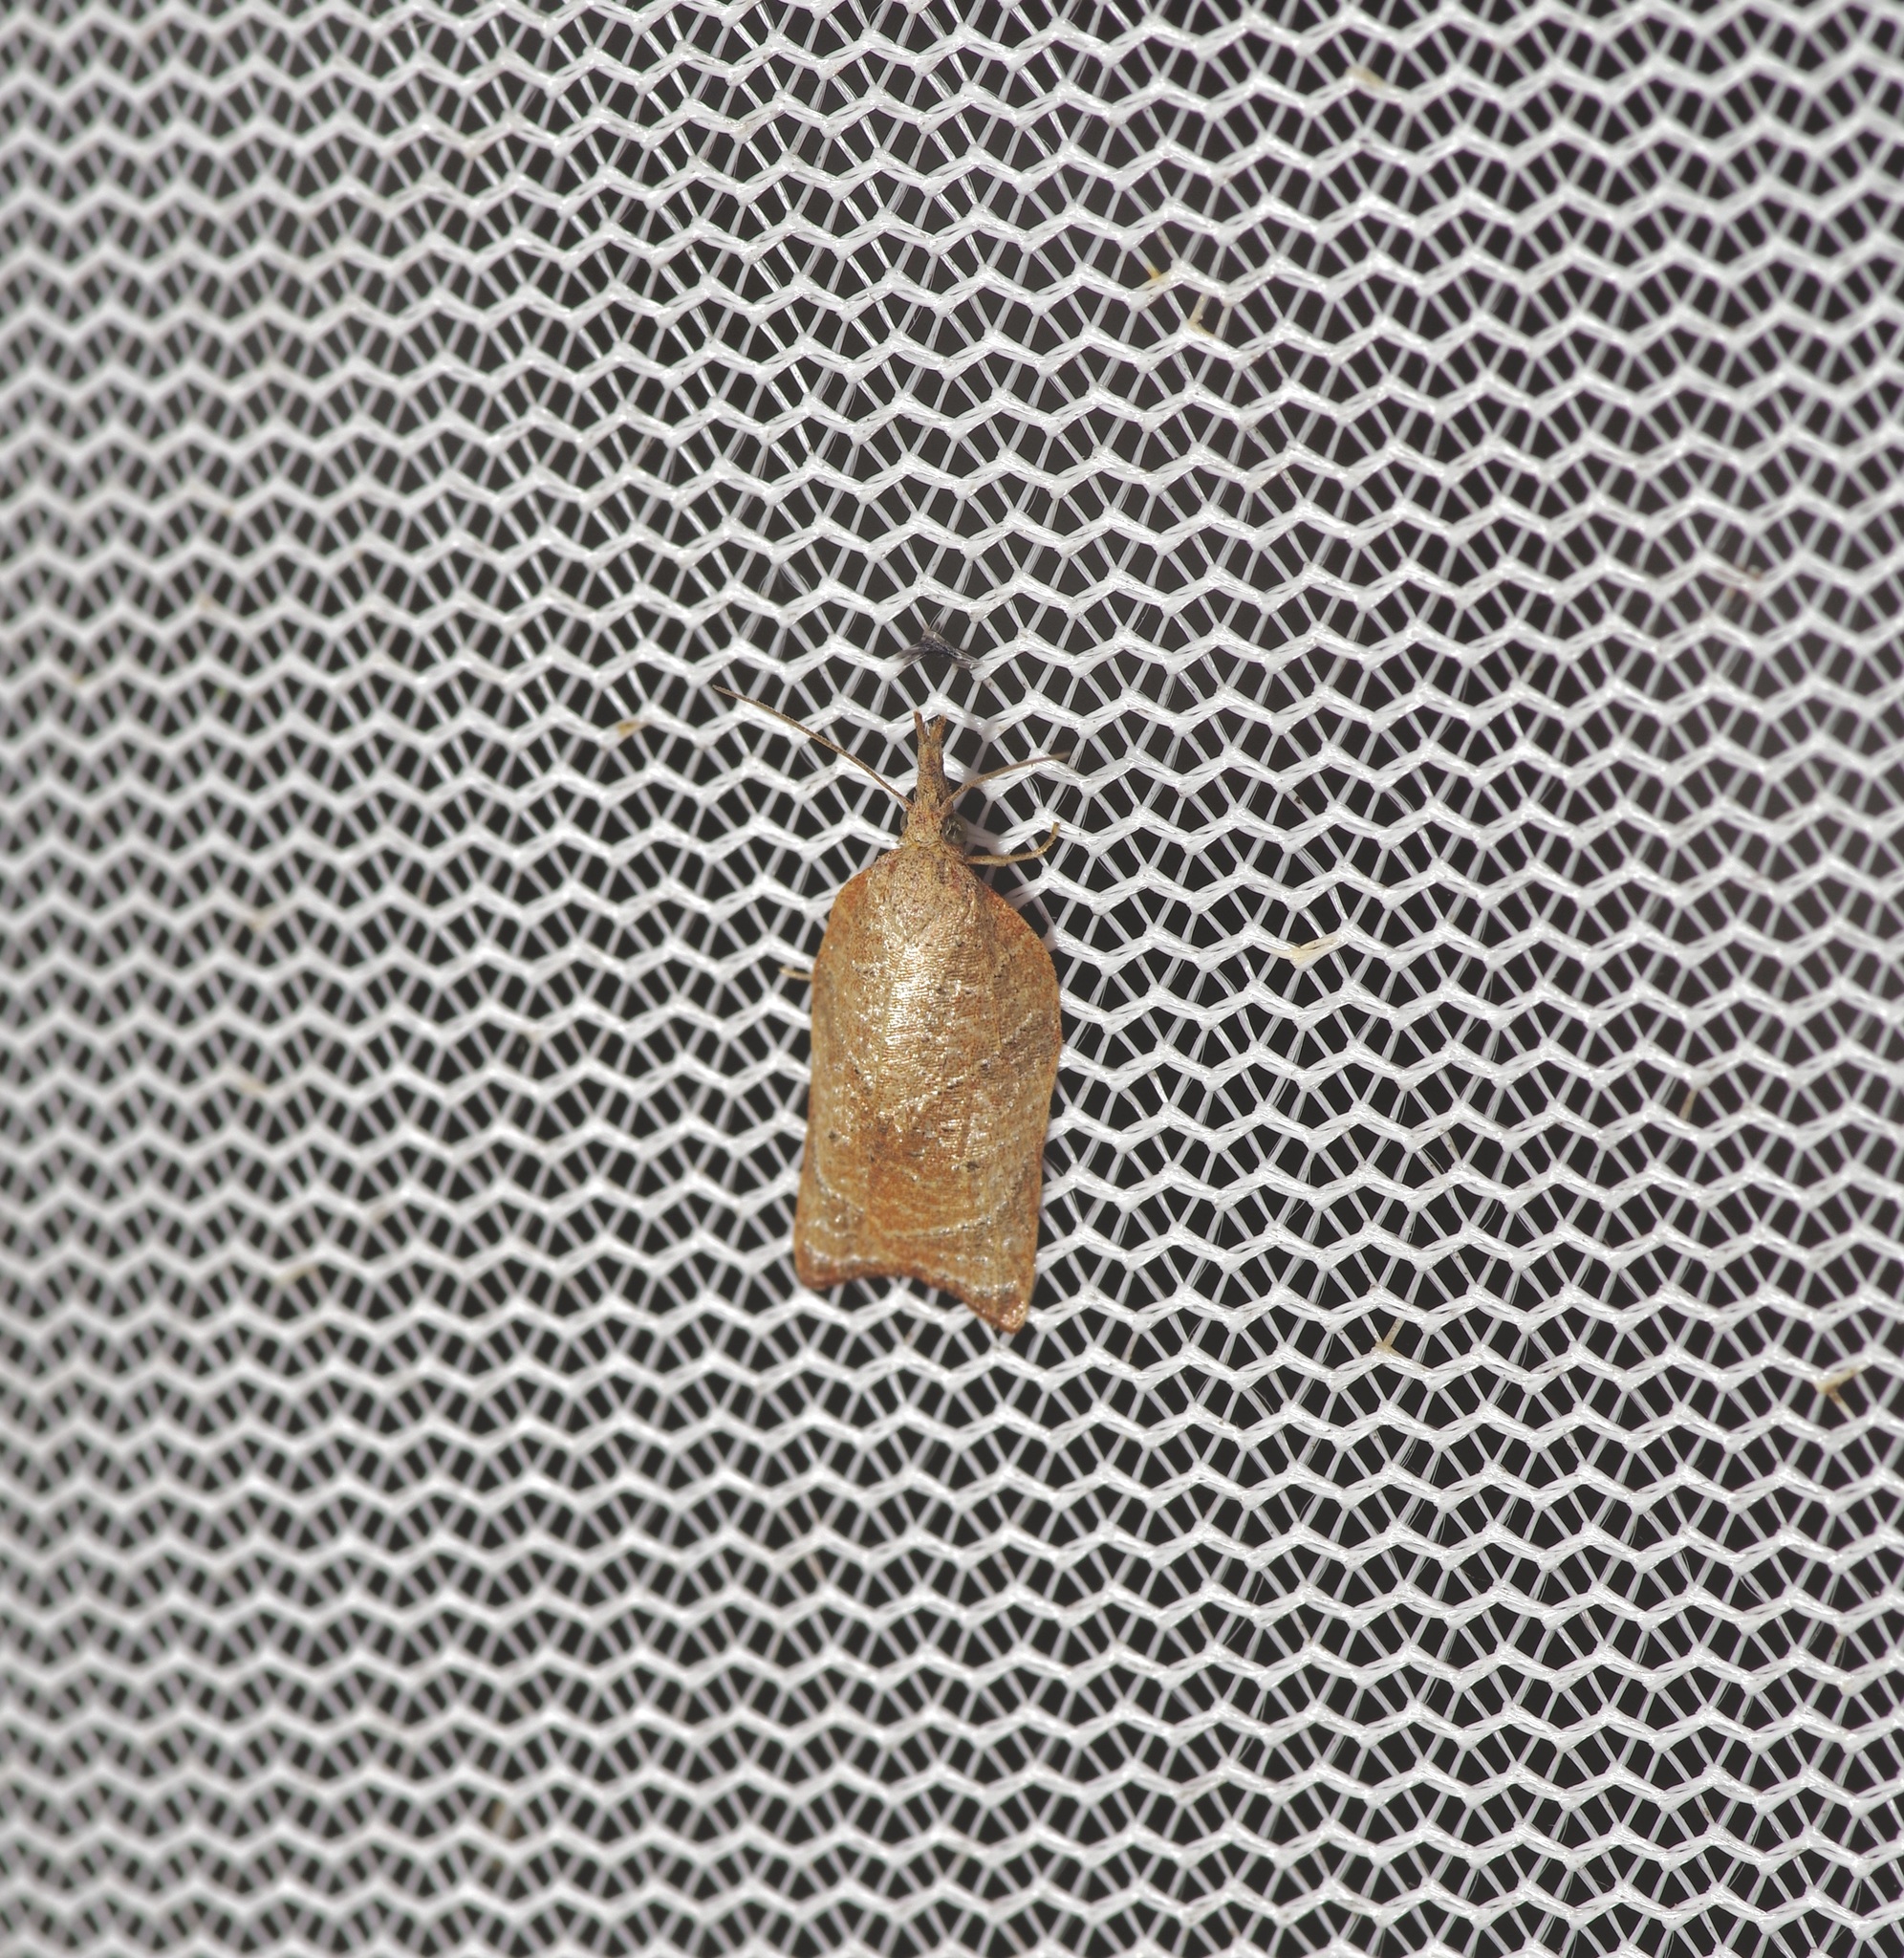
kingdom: Animalia
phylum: Arthropoda
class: Insecta
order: Lepidoptera
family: Tortricidae
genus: Platynota
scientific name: Platynota rostrana
